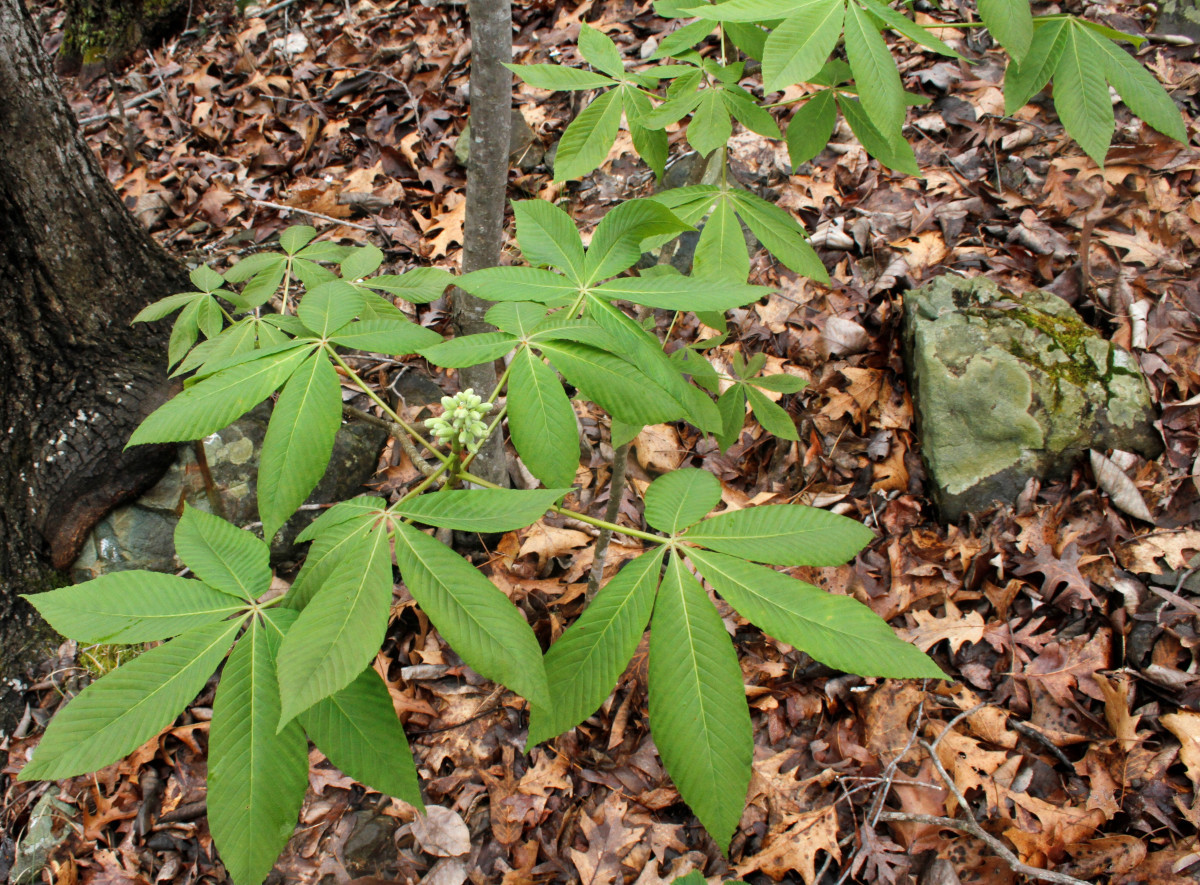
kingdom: Plantae
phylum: Tracheophyta
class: Magnoliopsida
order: Sapindales
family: Sapindaceae
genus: Aesculus
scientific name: Aesculus sylvatica
